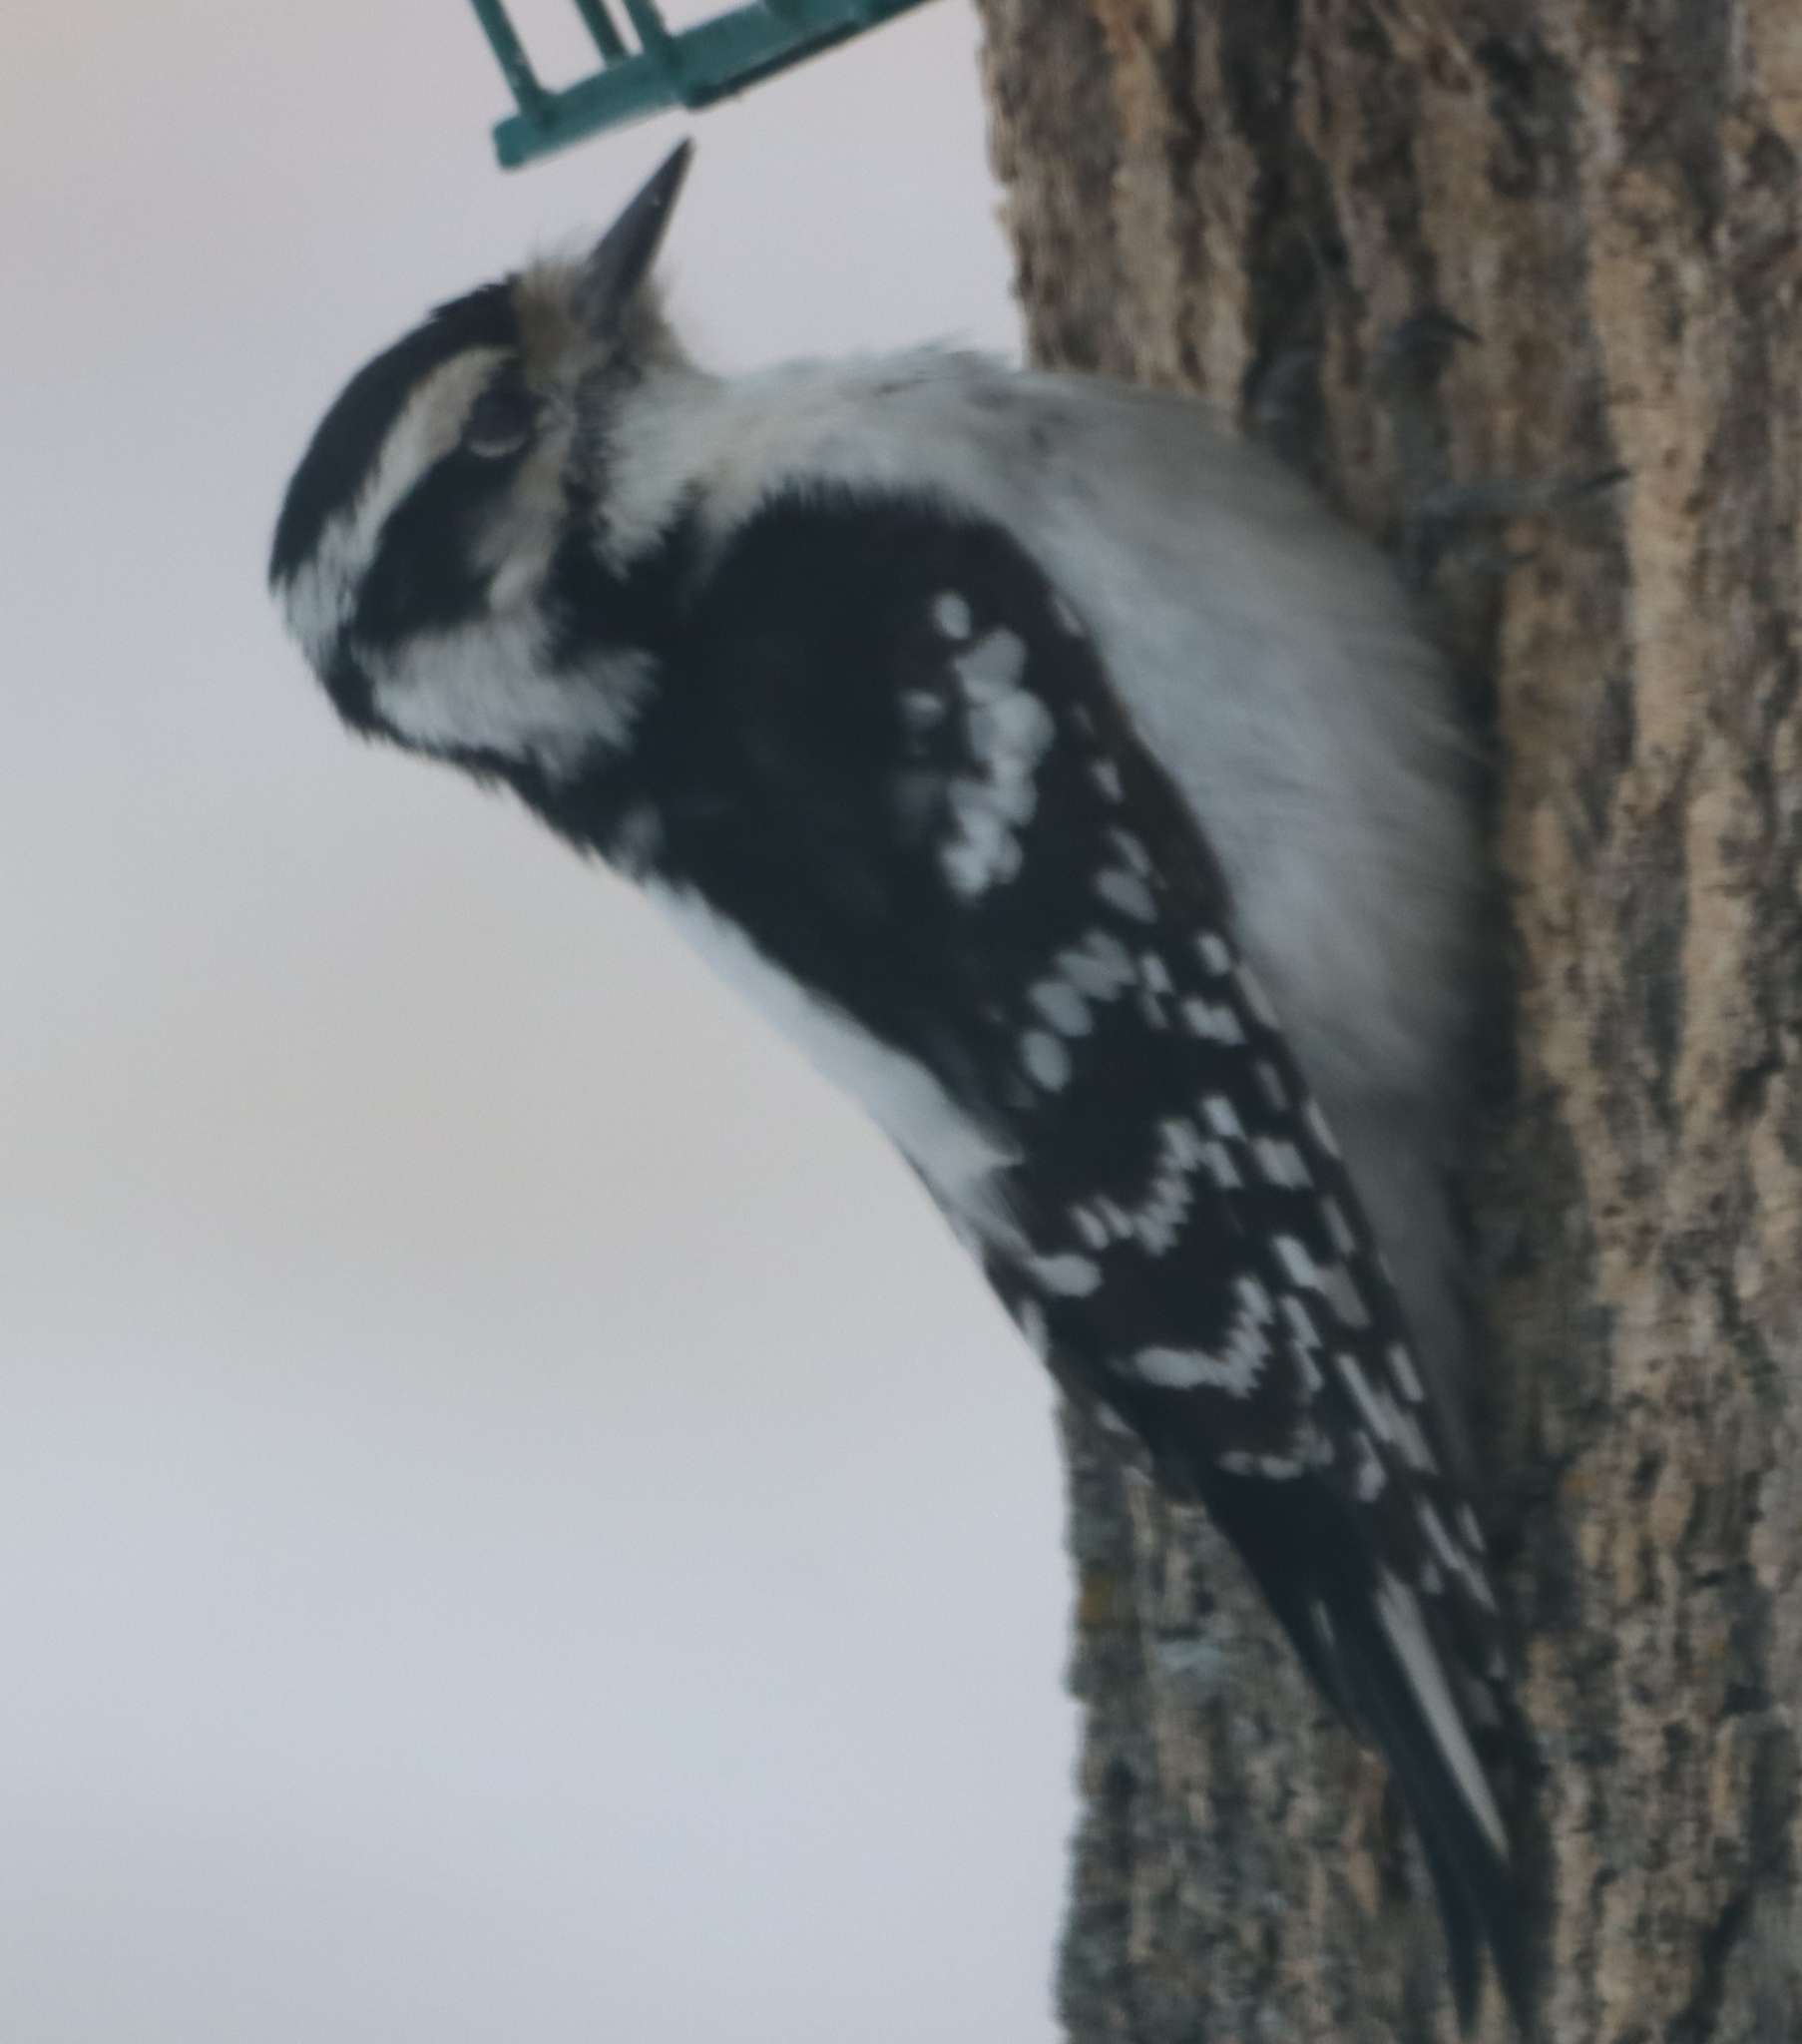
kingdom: Animalia
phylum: Chordata
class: Aves
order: Piciformes
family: Picidae
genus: Dryobates
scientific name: Dryobates pubescens
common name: Downy woodpecker
